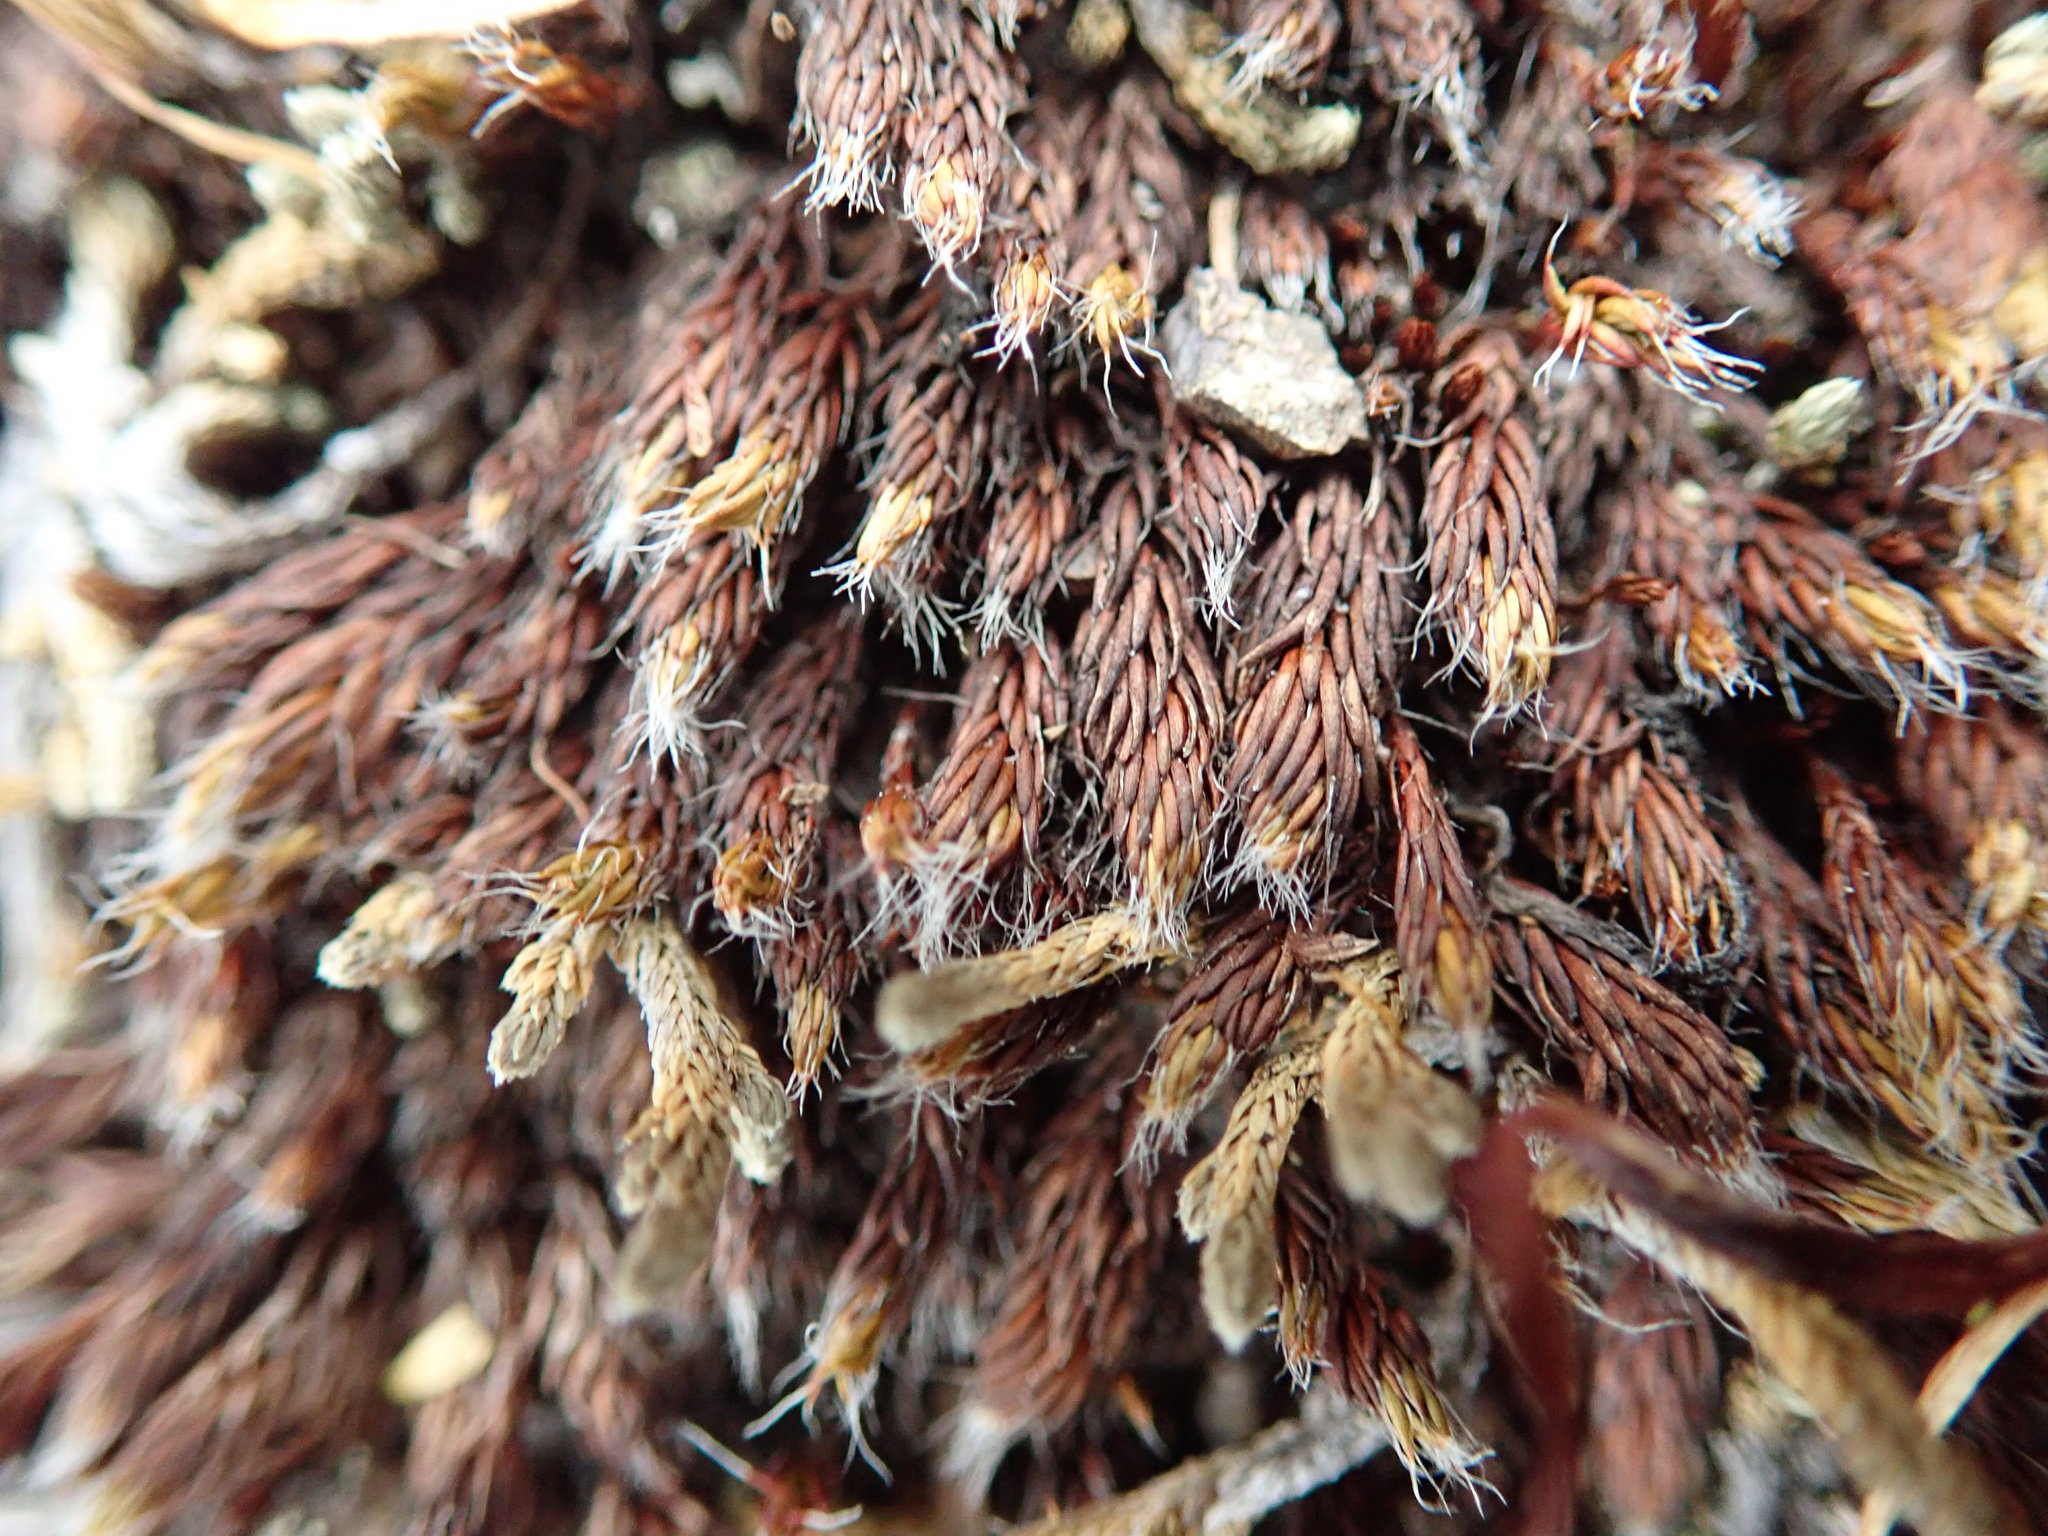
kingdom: Plantae
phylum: Bryophyta
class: Polytrichopsida
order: Polytrichales
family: Polytrichaceae
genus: Polytrichum
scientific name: Polytrichum piliferum
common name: Bristly haircap
